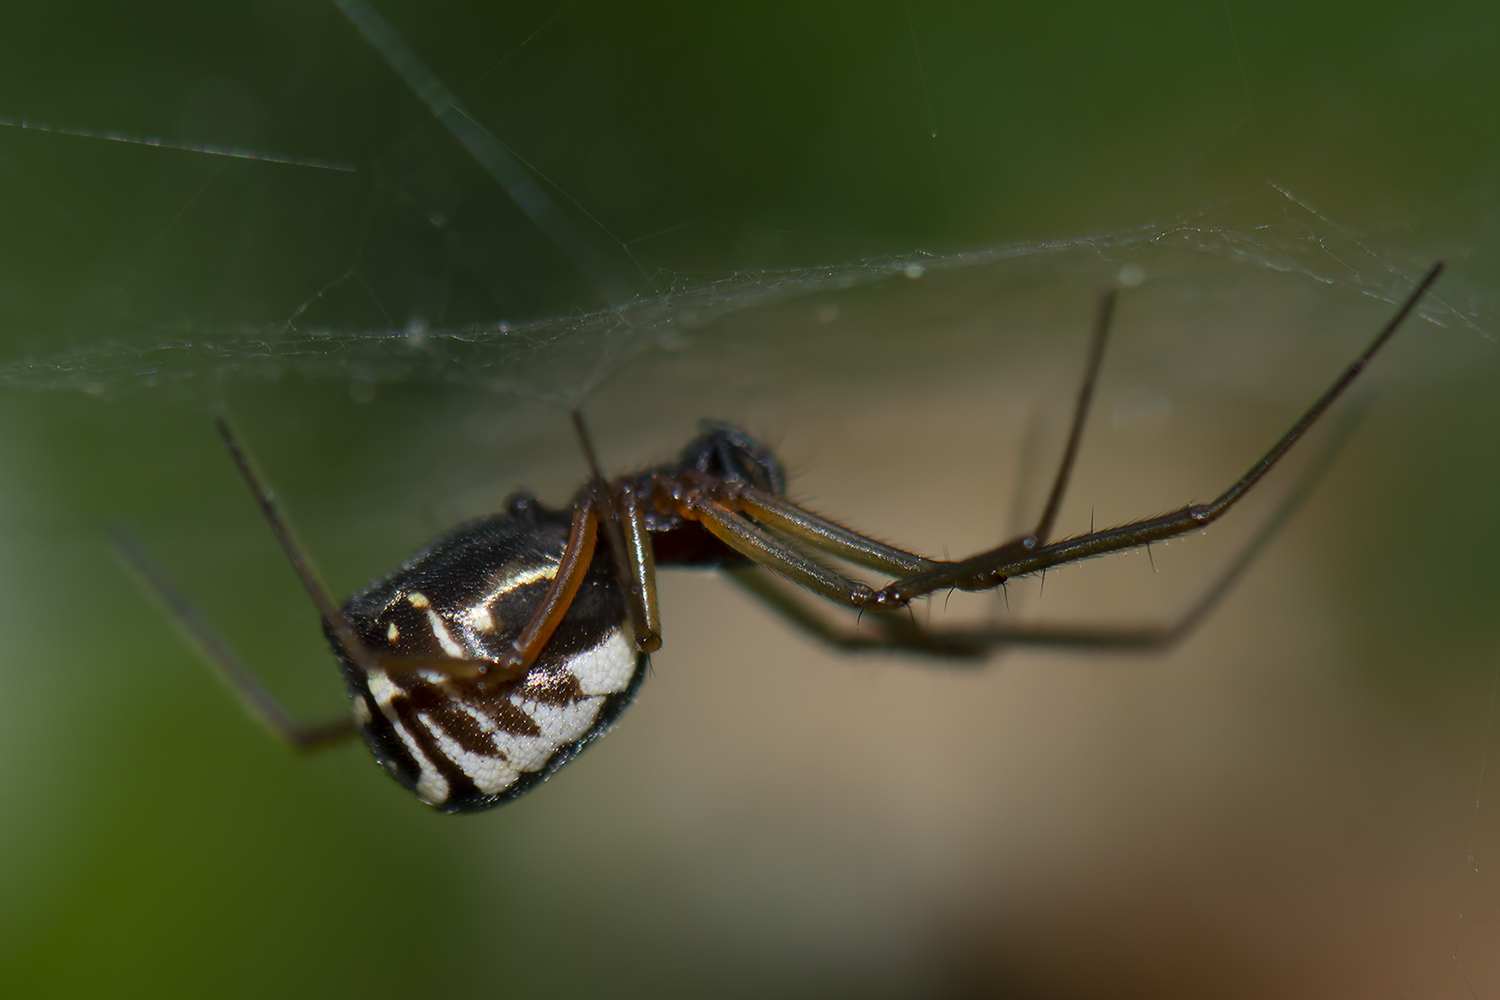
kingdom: Animalia
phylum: Arthropoda
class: Arachnida
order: Araneae
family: Linyphiidae
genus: Frontinellina
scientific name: Frontinellina frutetorum
